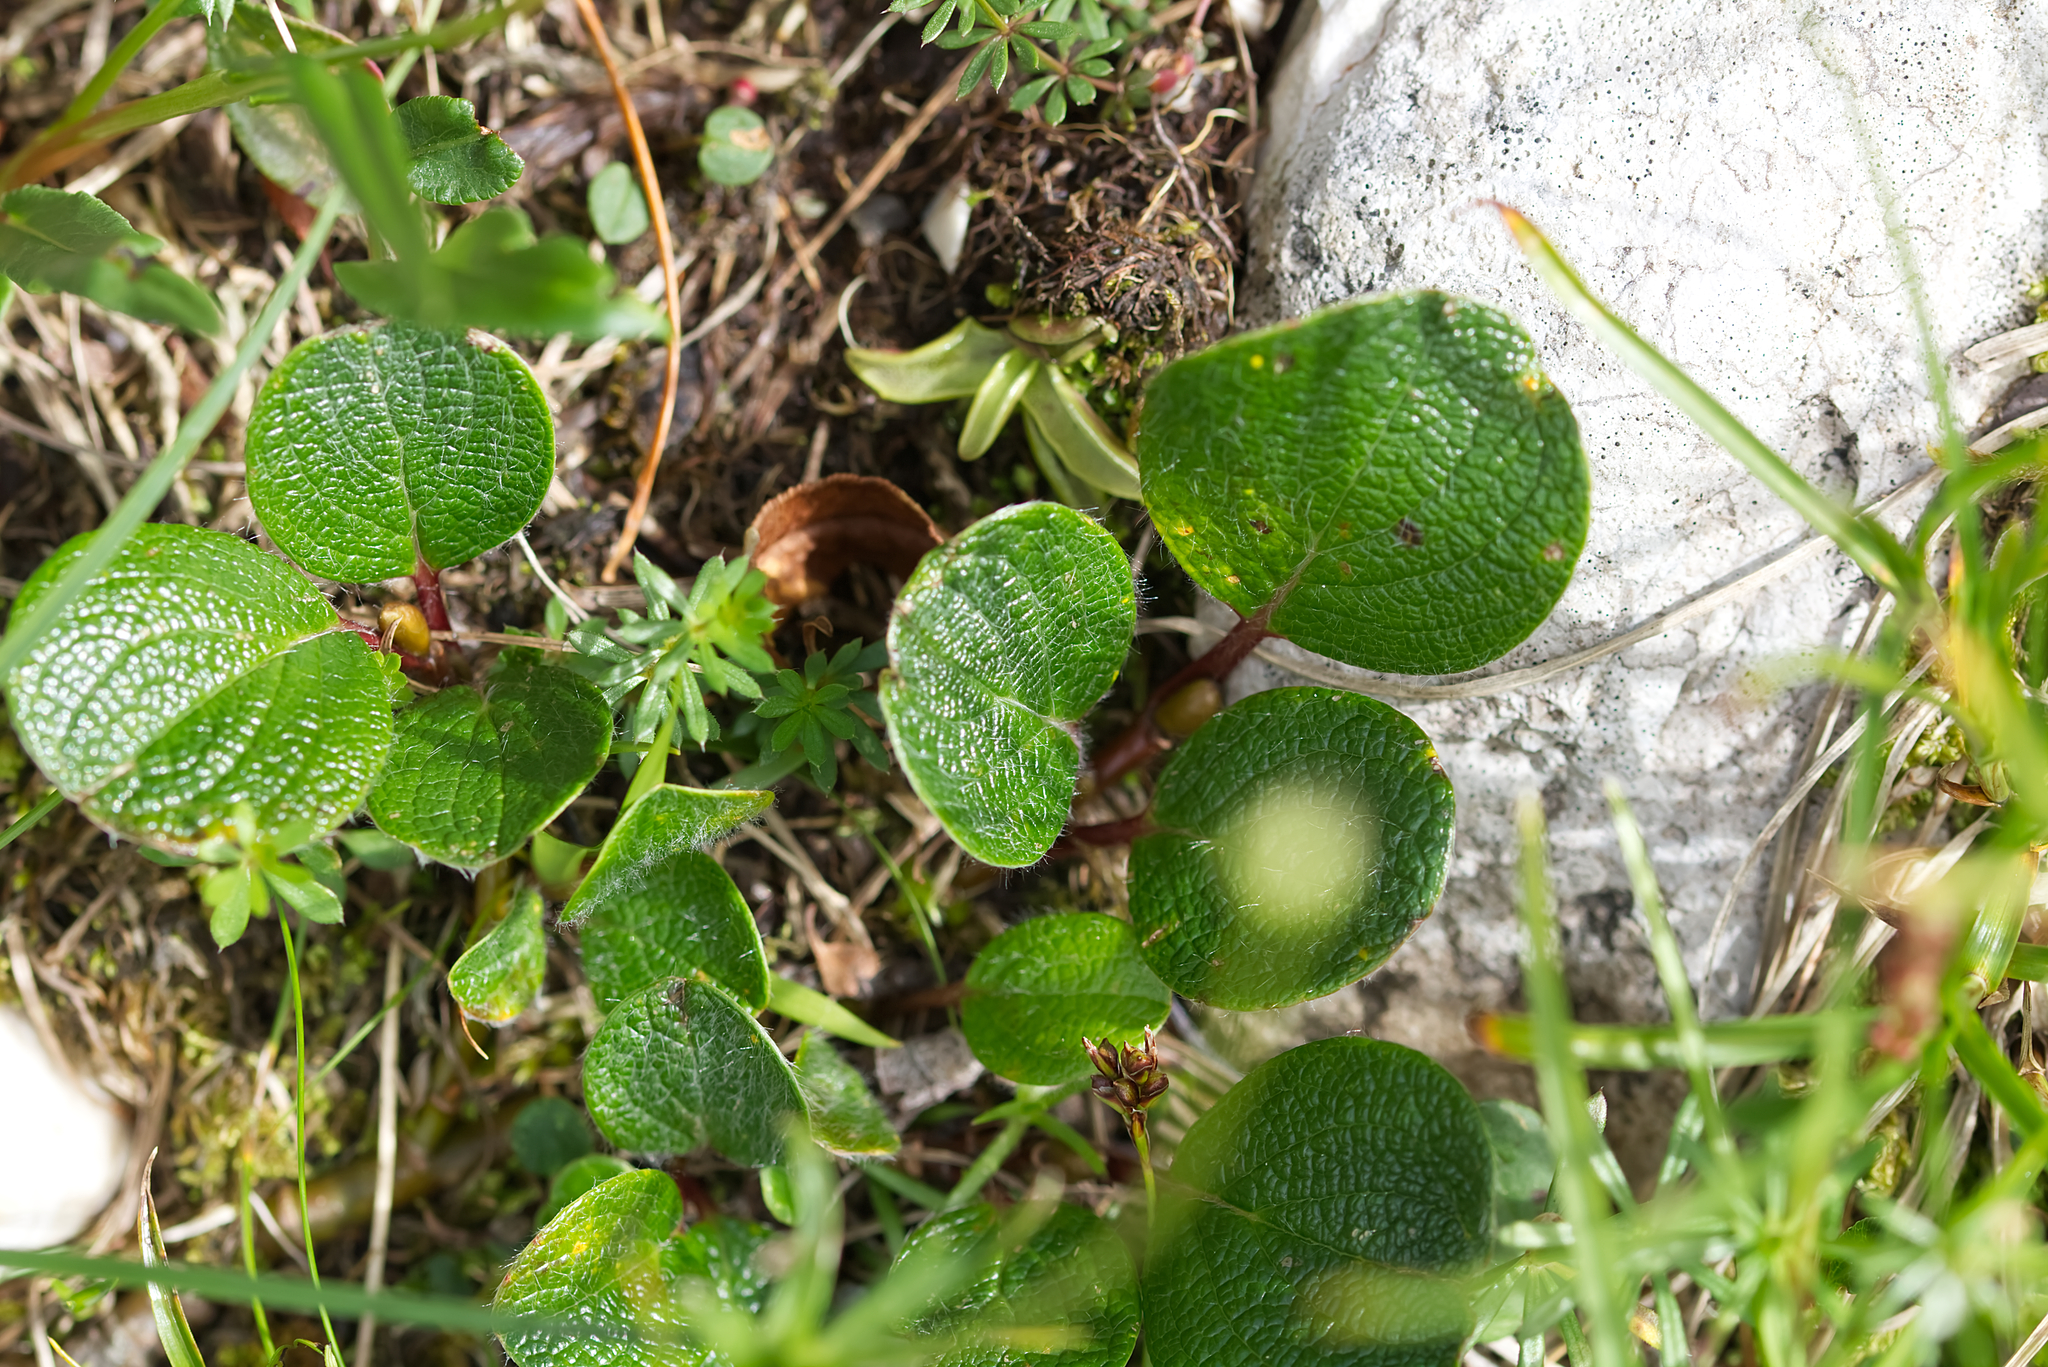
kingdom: Plantae
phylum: Tracheophyta
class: Magnoliopsida
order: Malpighiales
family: Salicaceae
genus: Salix
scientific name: Salix reticulata
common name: Net-leaved willow
